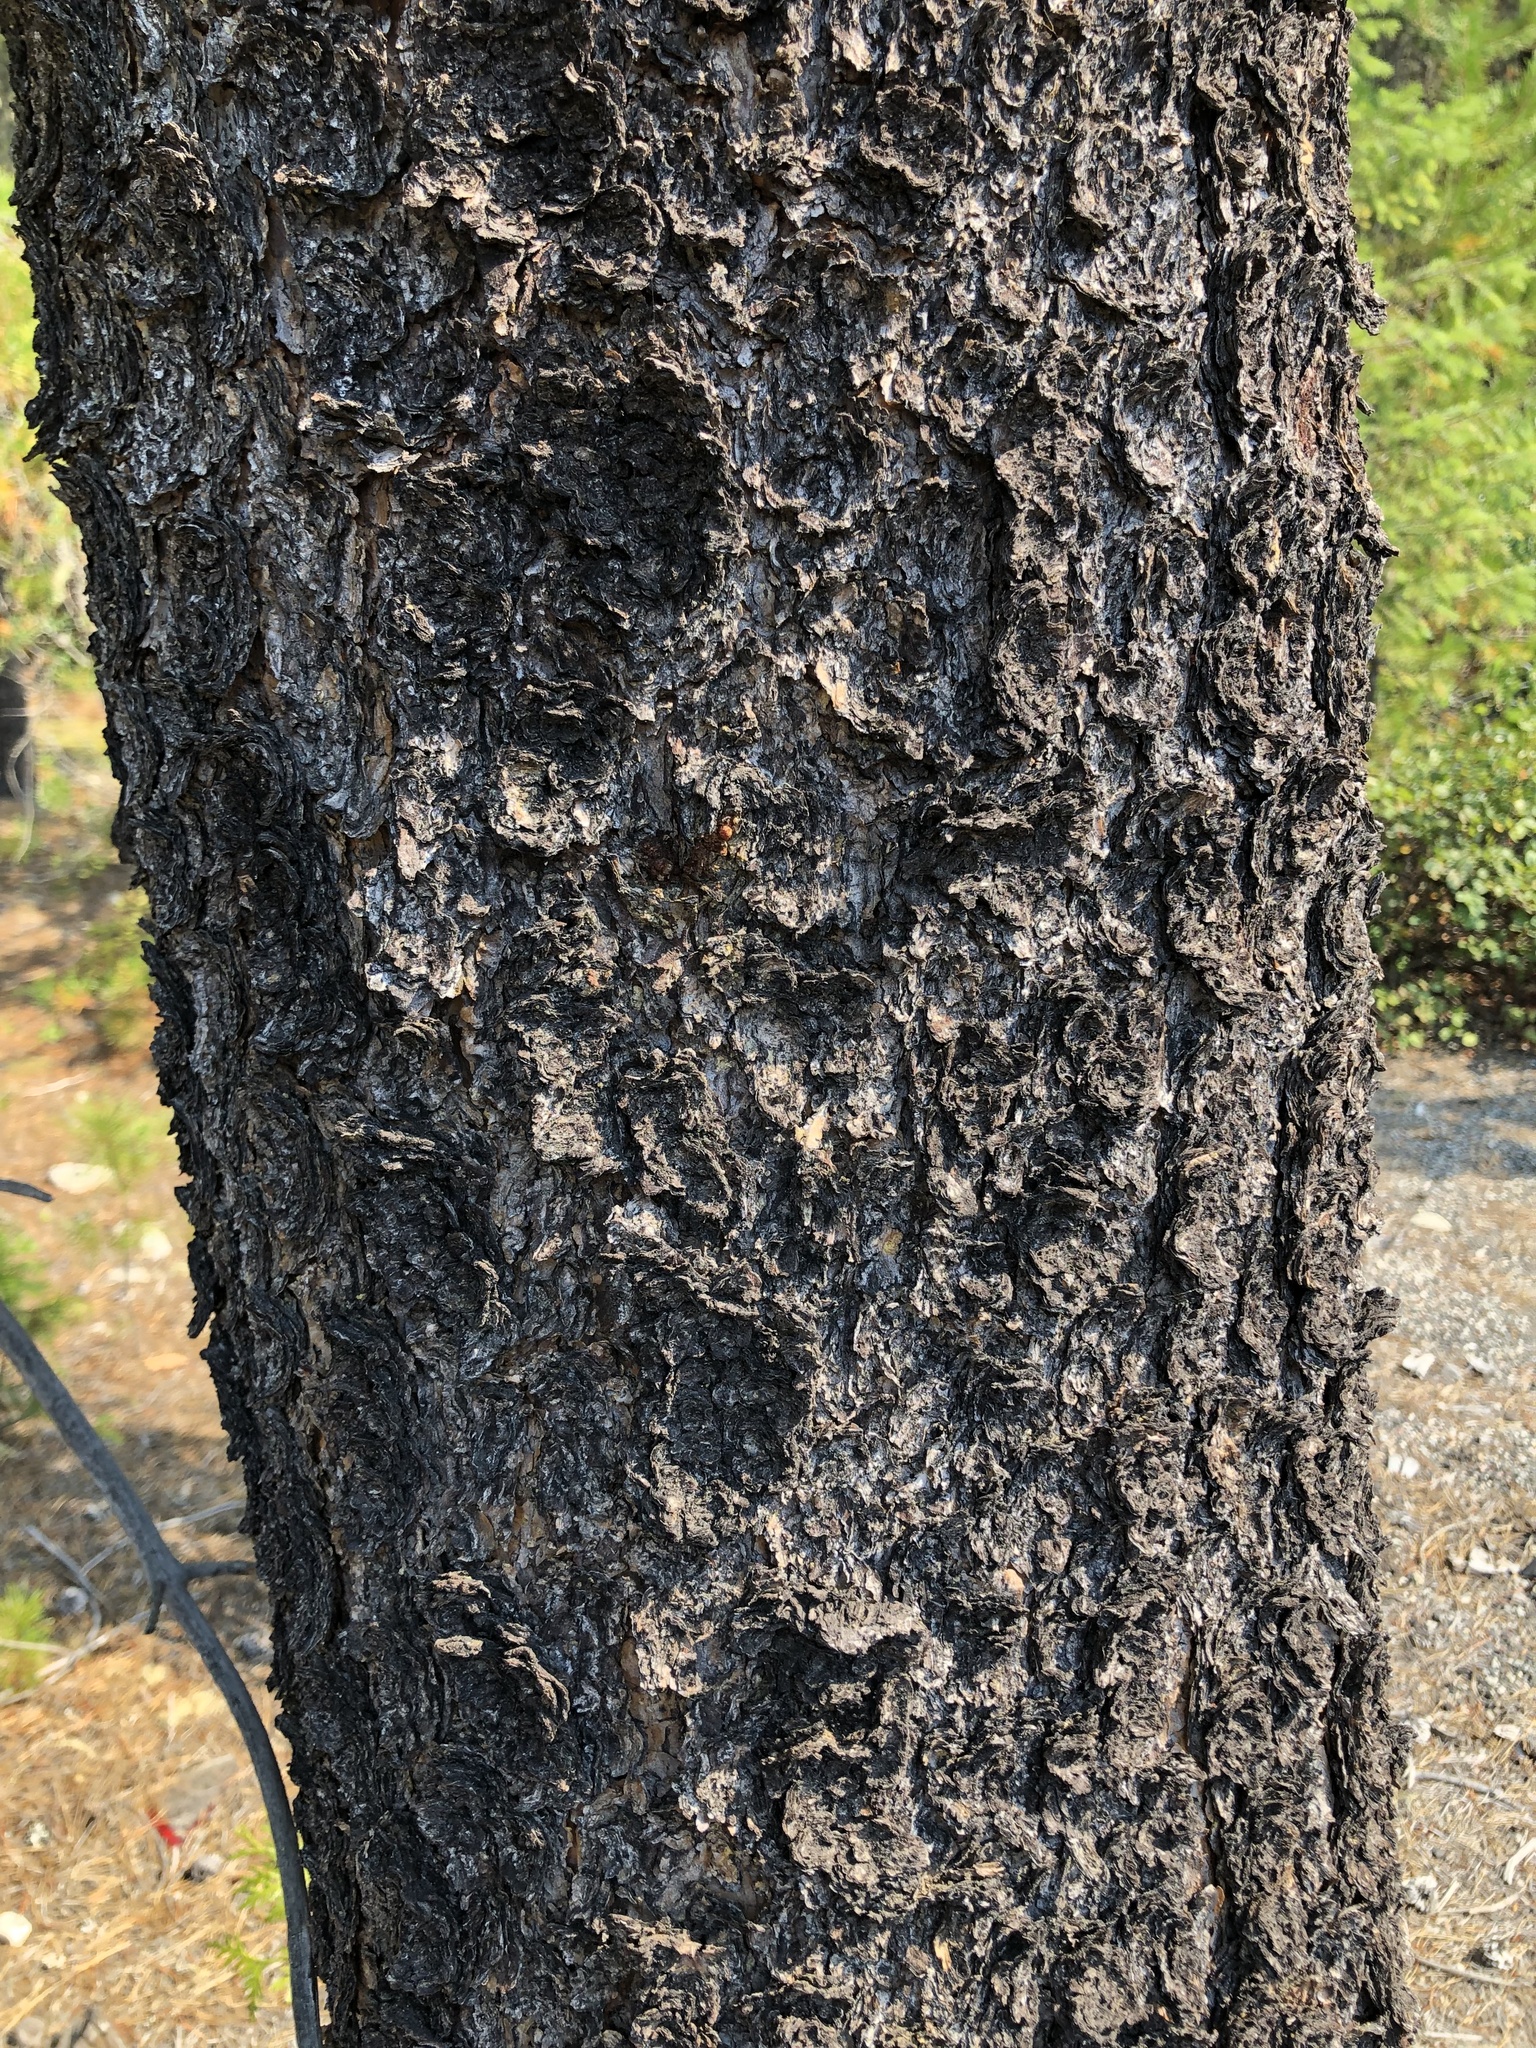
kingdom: Plantae
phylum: Tracheophyta
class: Pinopsida
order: Pinales
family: Pinaceae
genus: Pinus
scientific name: Pinus contorta
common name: Lodgepole pine
